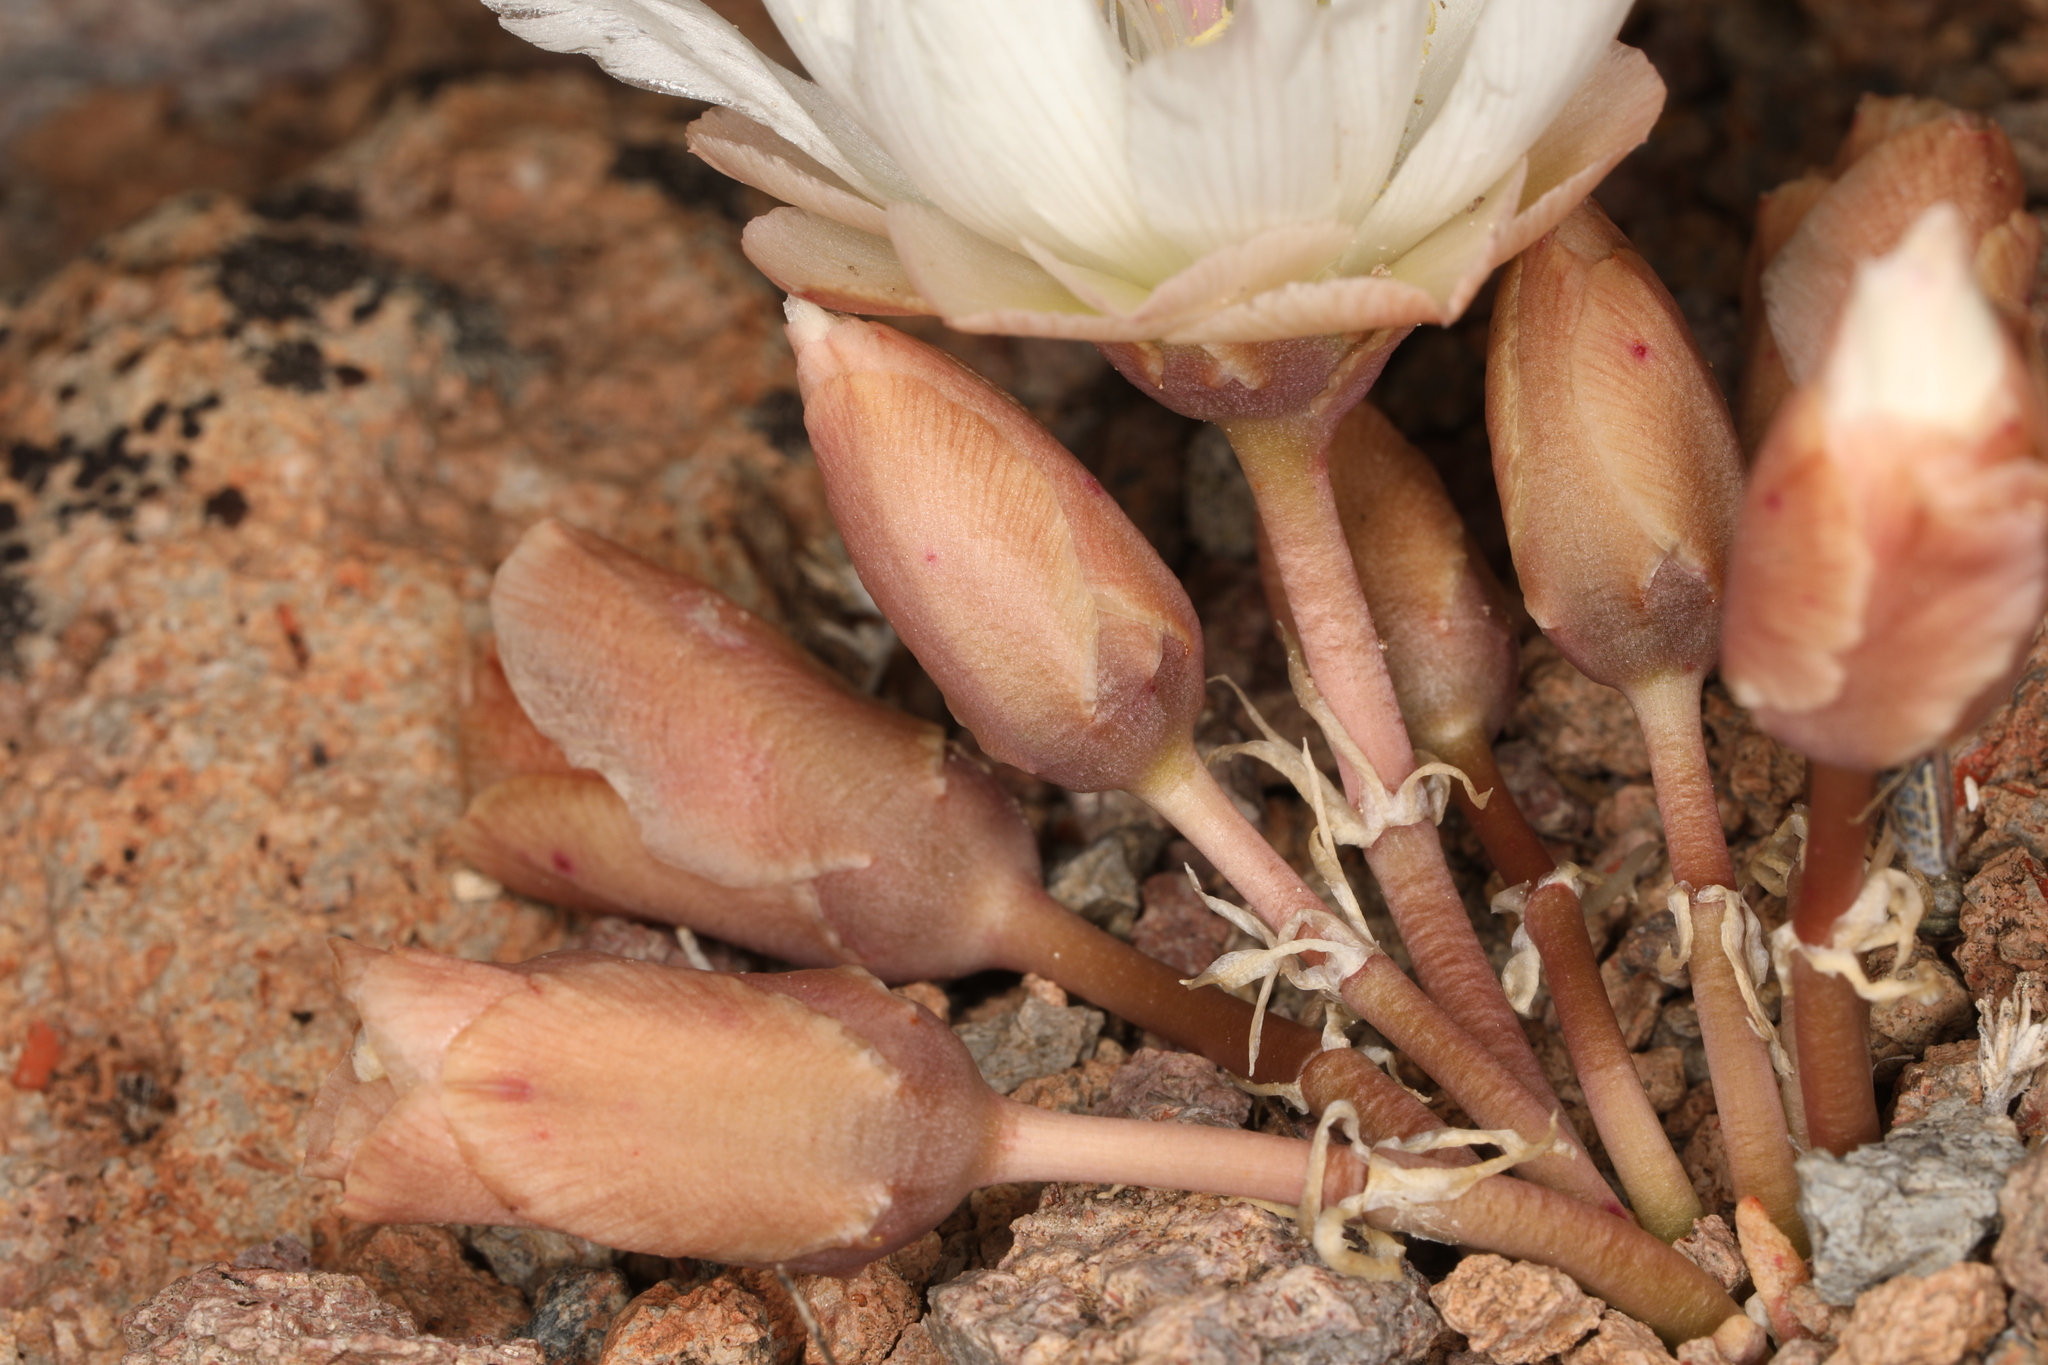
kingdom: Plantae
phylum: Tracheophyta
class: Magnoliopsida
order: Caryophyllales
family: Montiaceae
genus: Lewisia
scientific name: Lewisia rediviva
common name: Bitter-root
